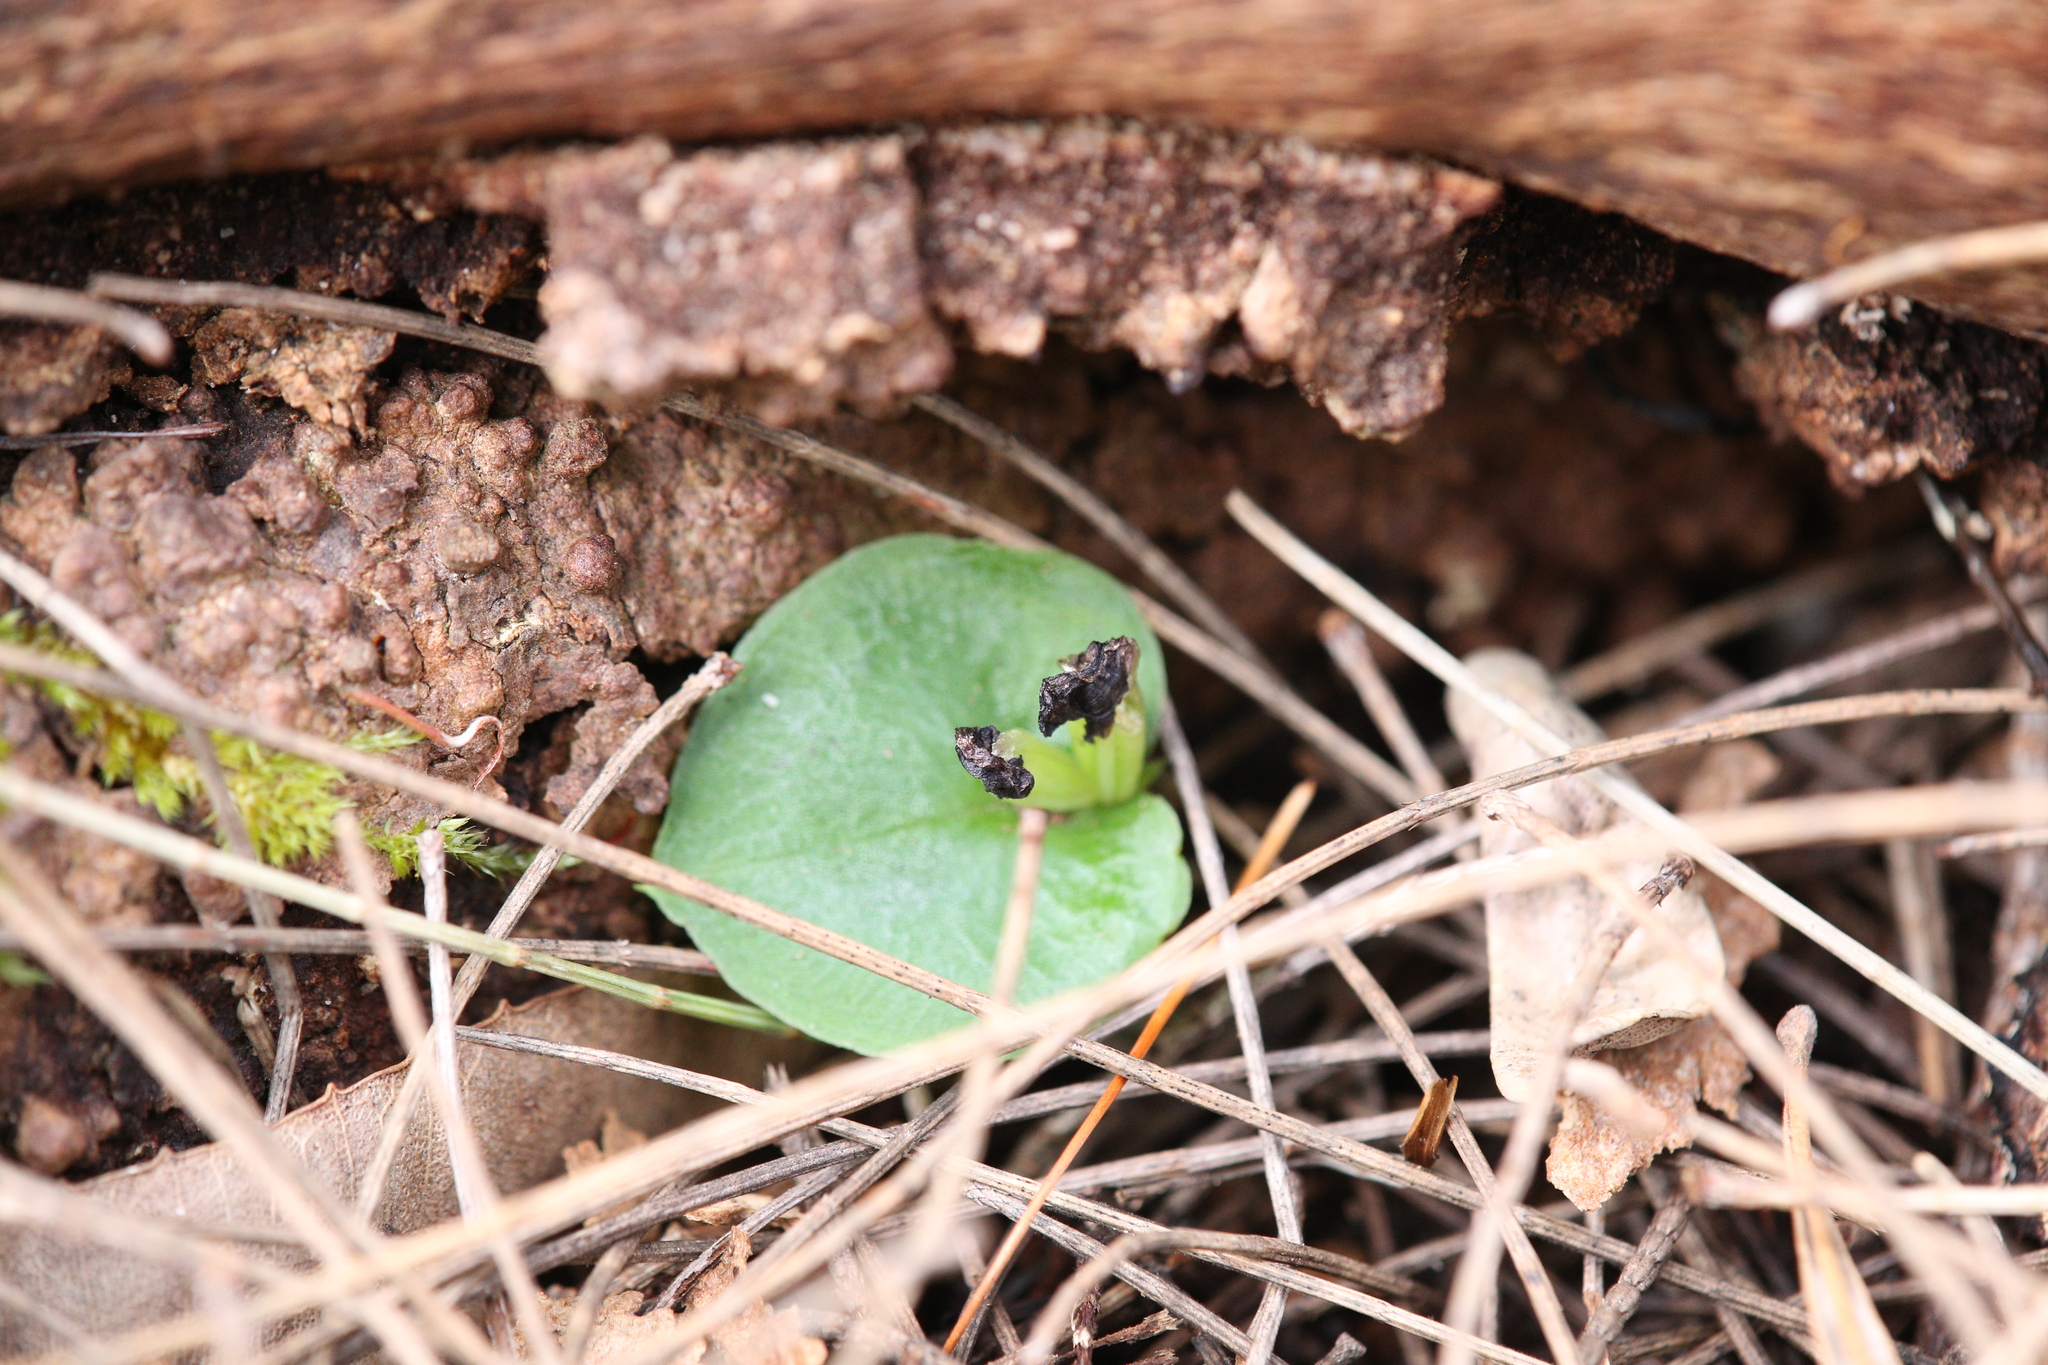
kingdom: Plantae
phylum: Tracheophyta
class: Liliopsida
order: Asparagales
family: Orchidaceae
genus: Corybas
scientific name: Corybas recurvus
